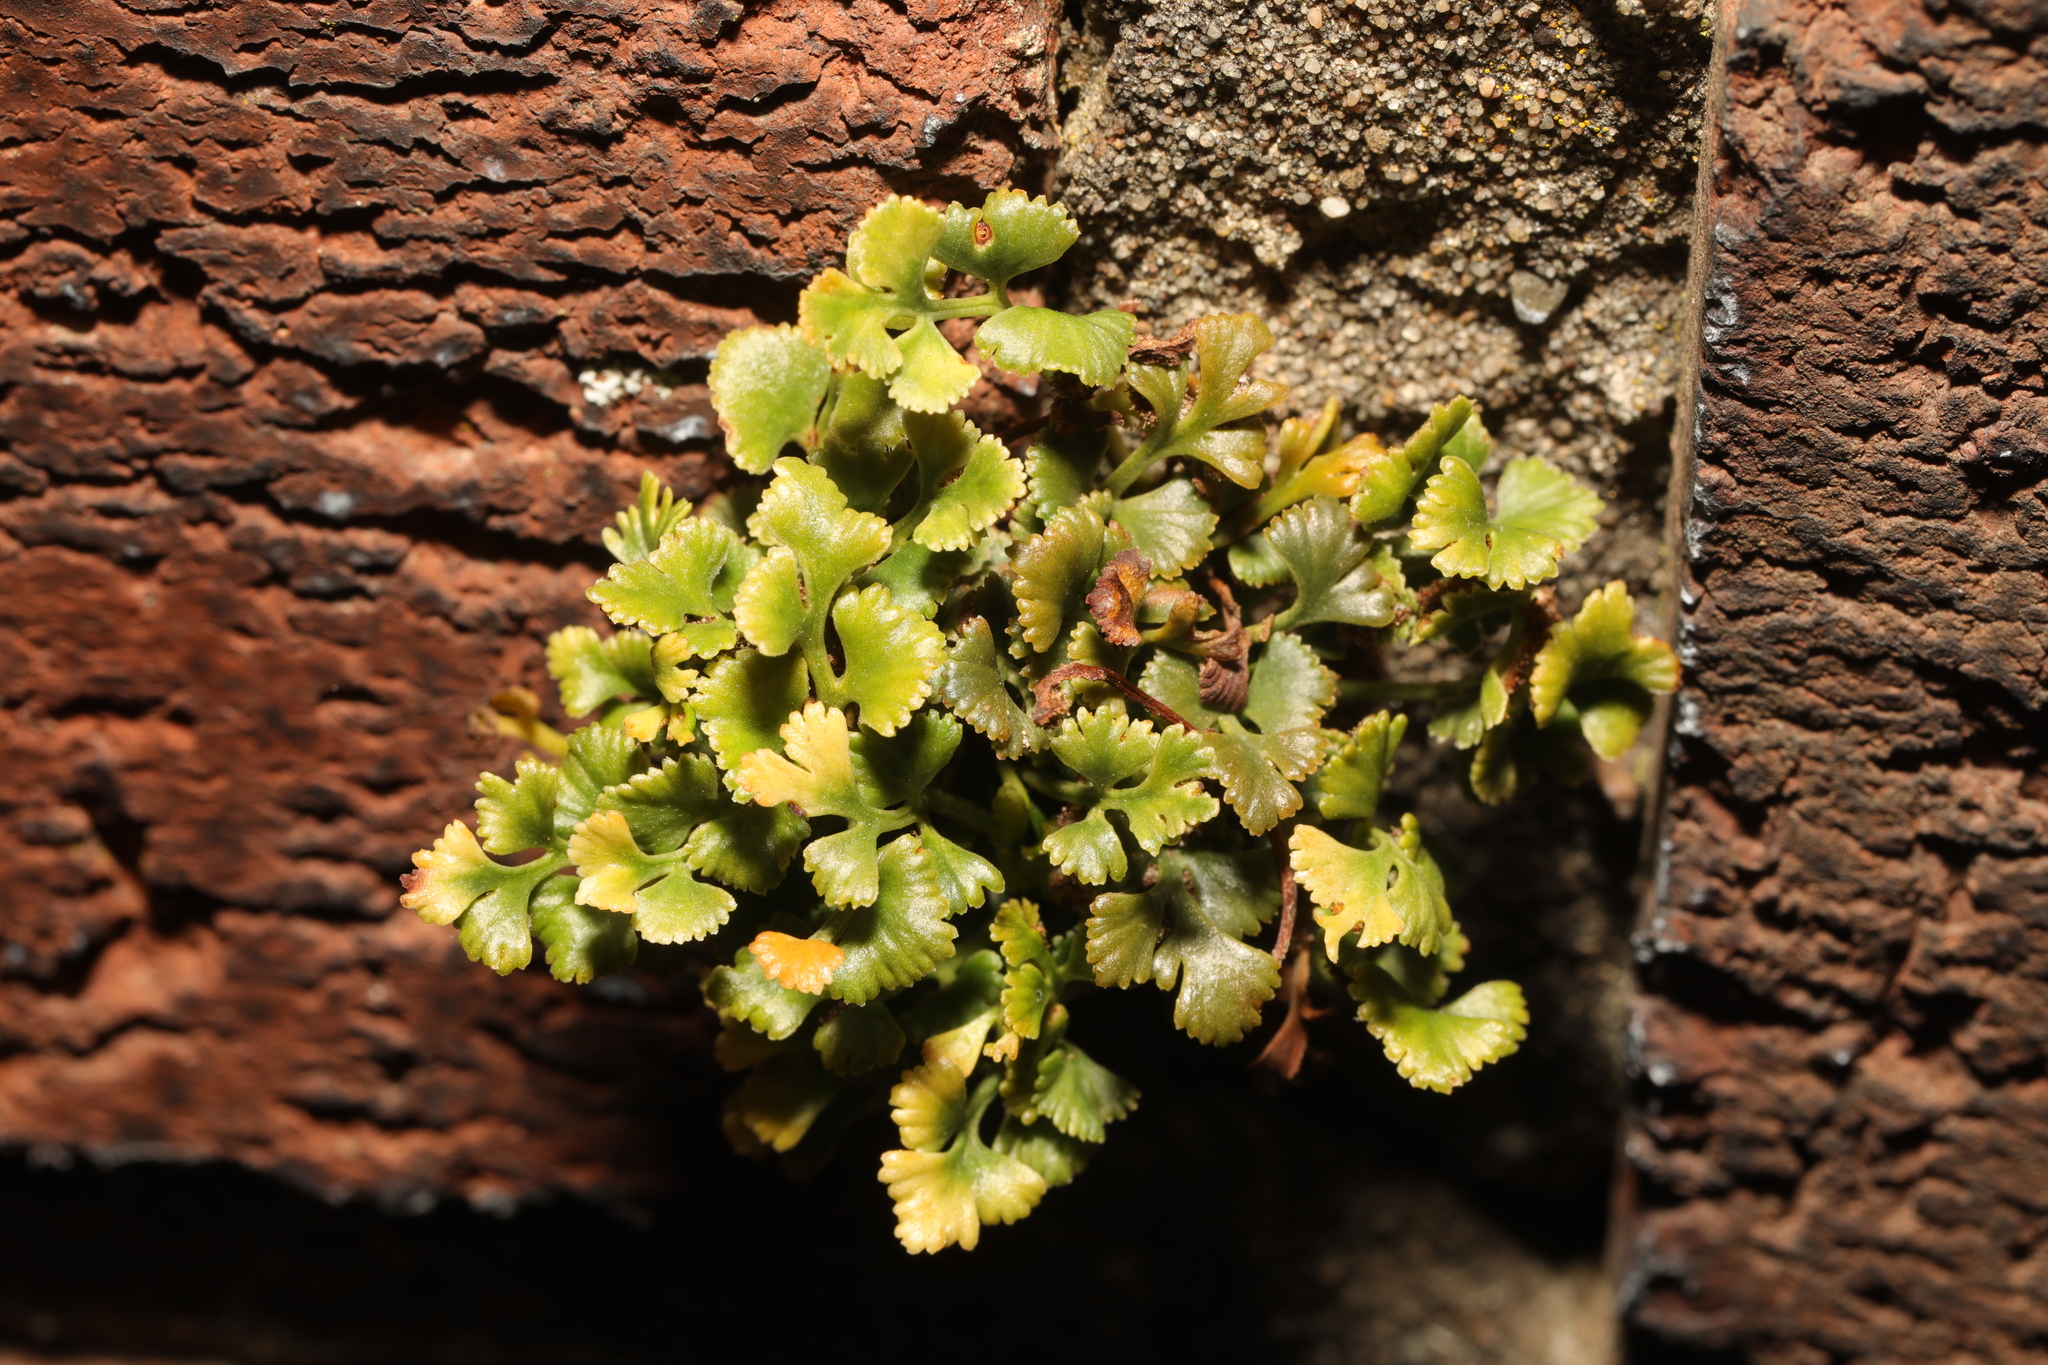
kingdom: Plantae
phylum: Tracheophyta
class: Polypodiopsida
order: Polypodiales
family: Aspleniaceae
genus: Asplenium
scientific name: Asplenium ruta-muraria
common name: Wall-rue
